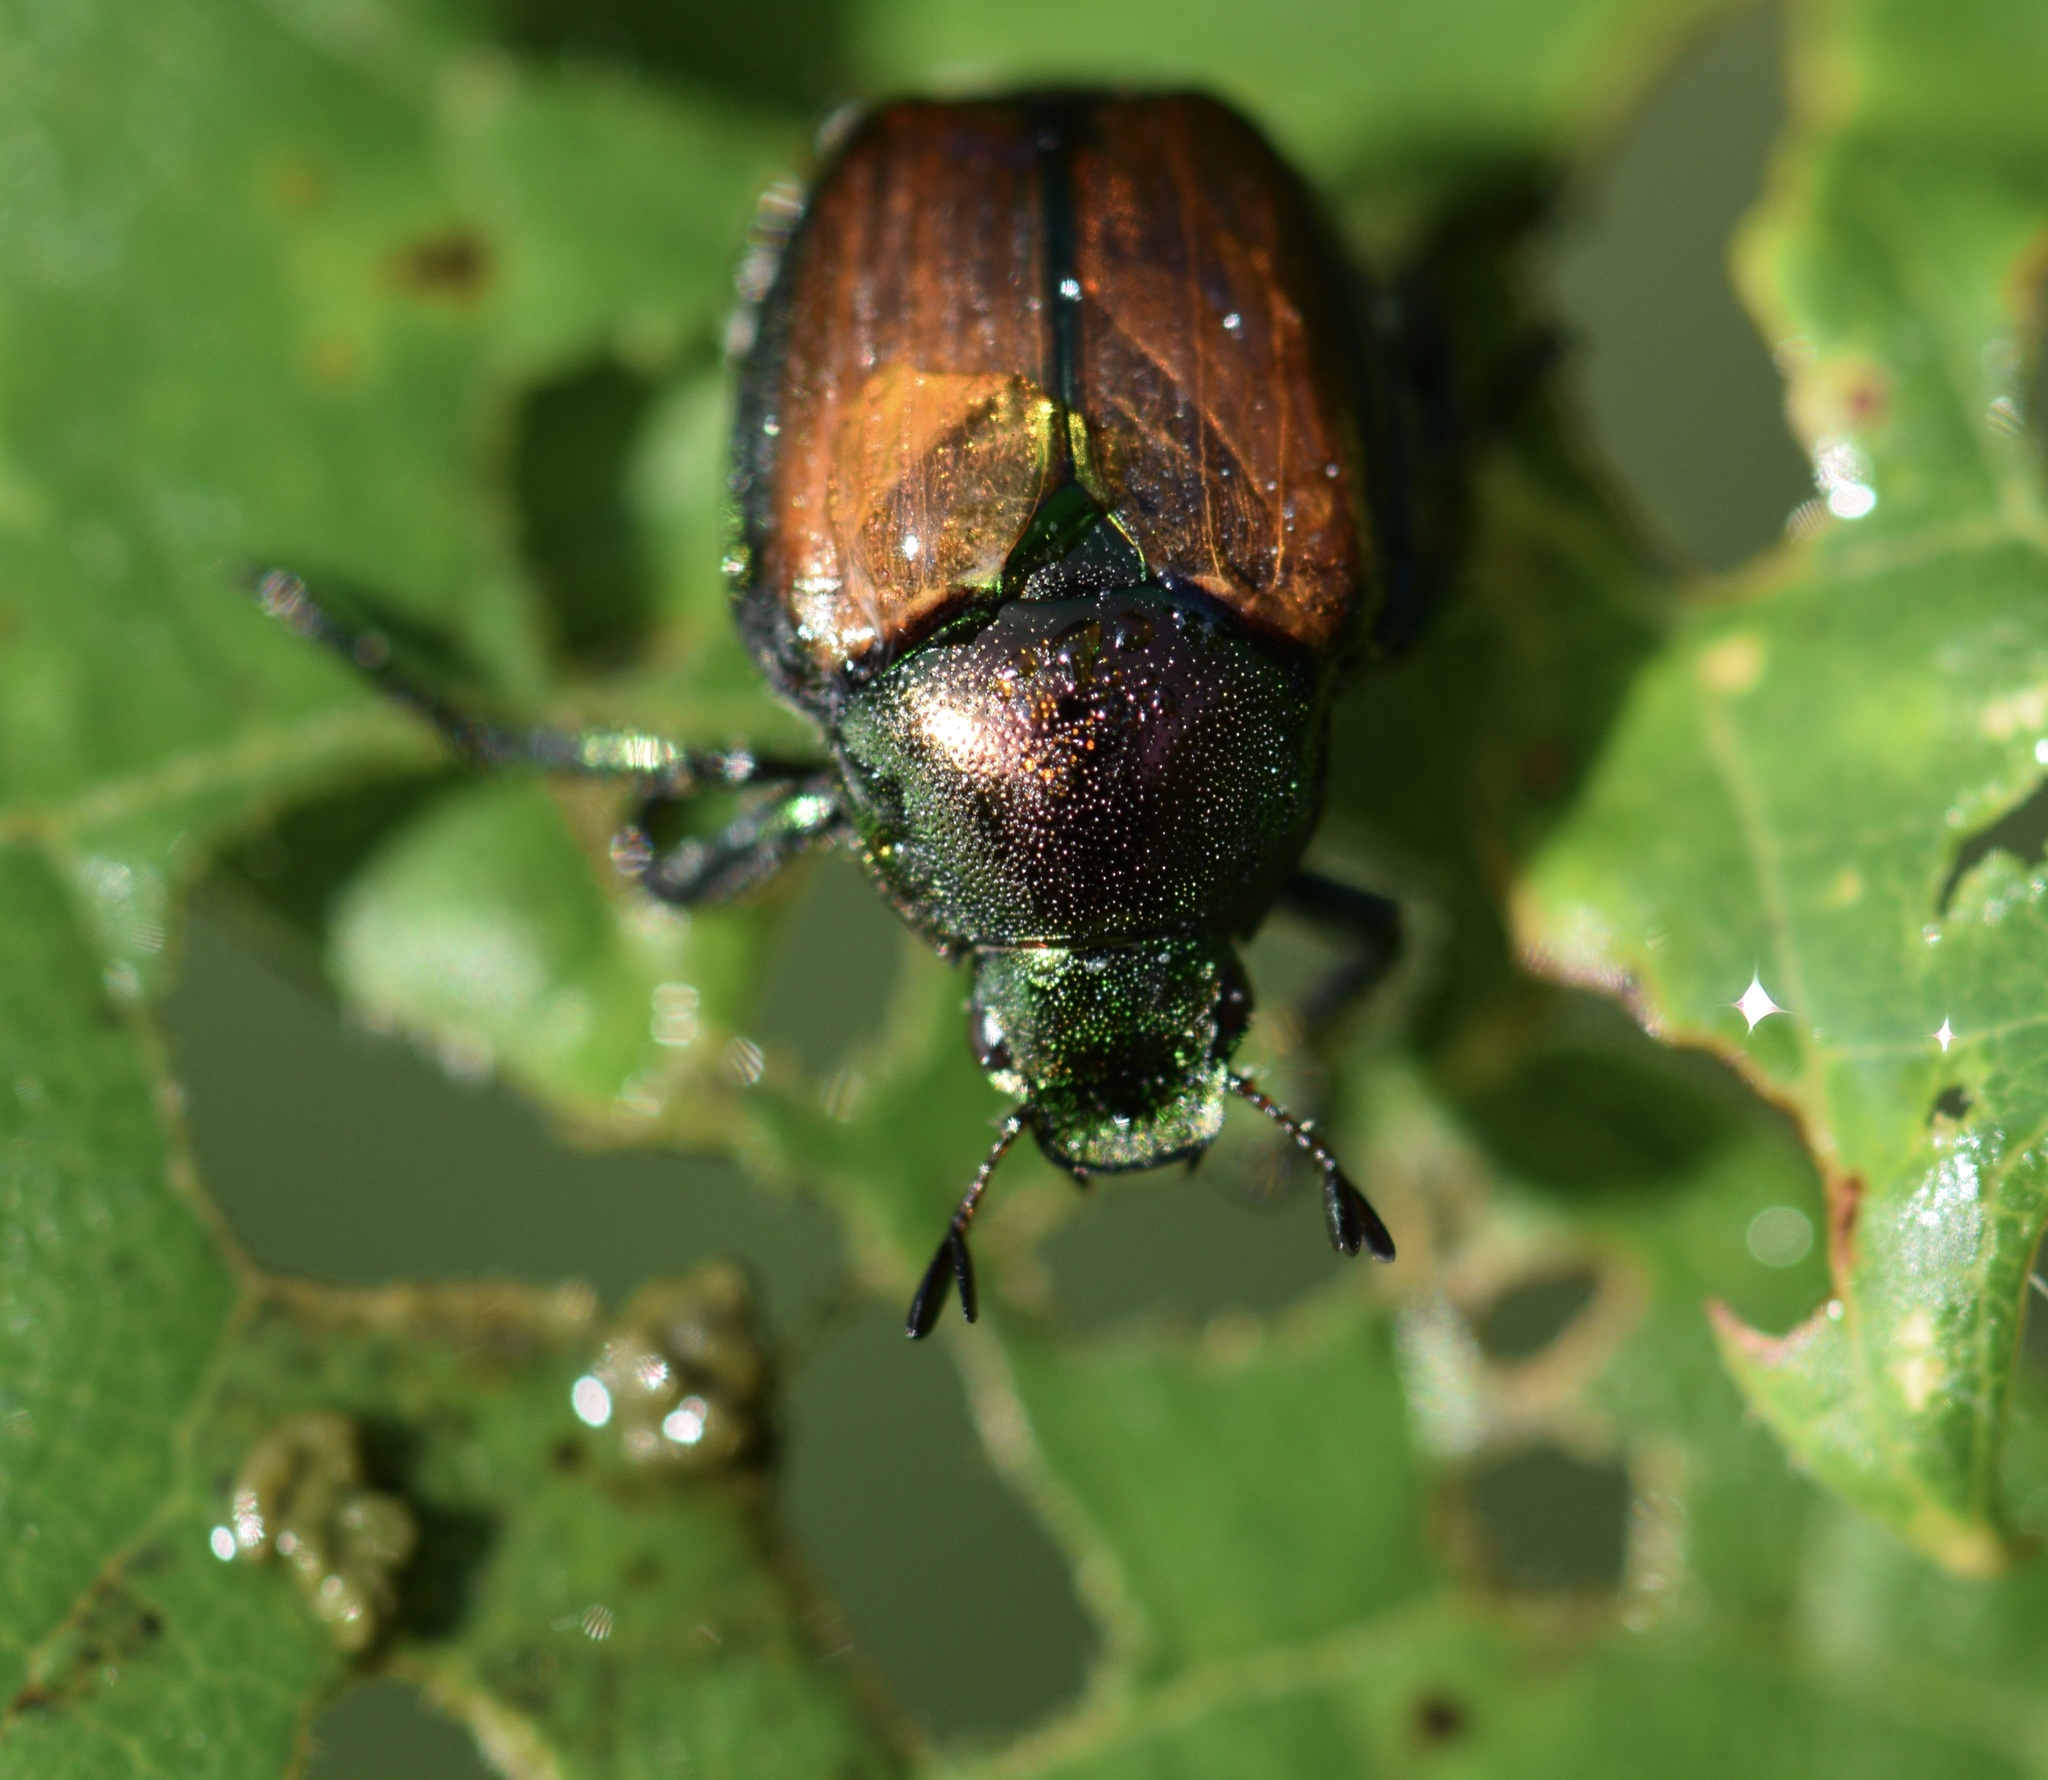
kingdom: Animalia
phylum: Arthropoda
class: Insecta
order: Coleoptera
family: Scarabaeidae
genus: Popillia
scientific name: Popillia japonica
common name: Japanese beetle
